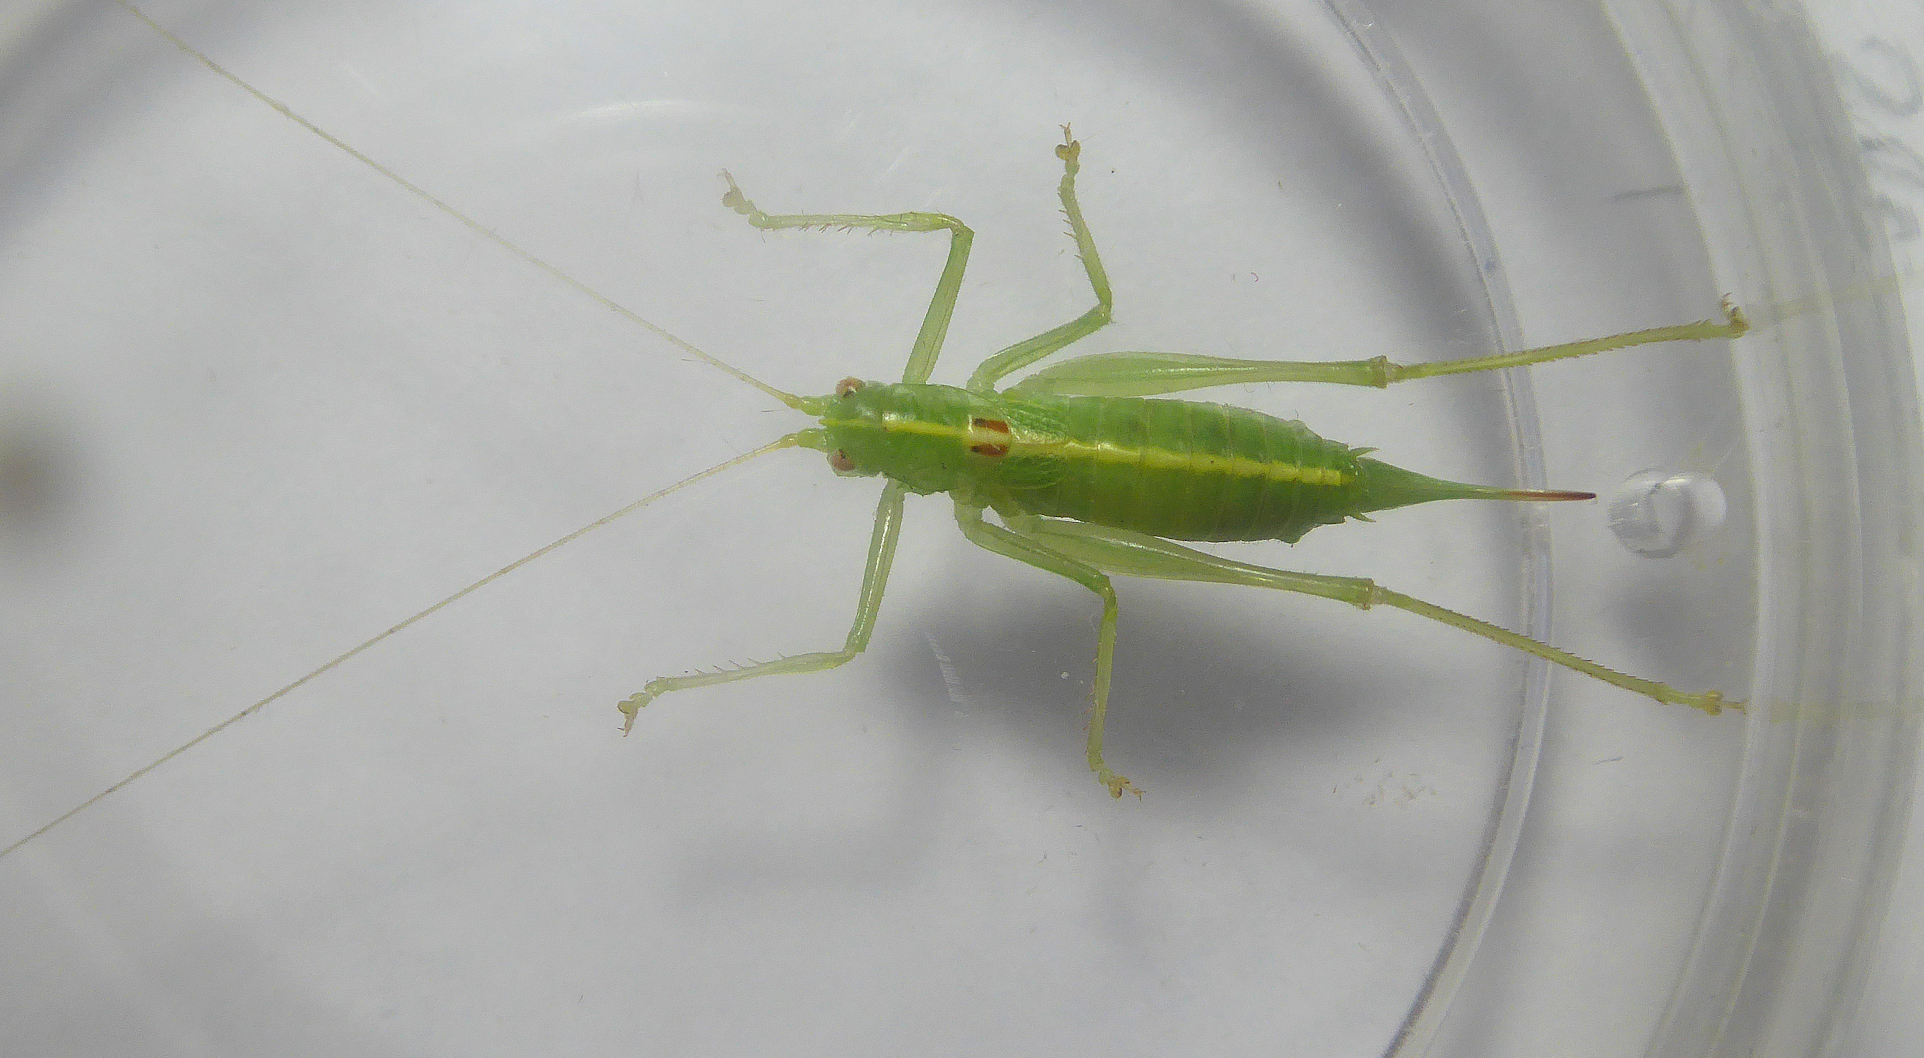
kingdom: Animalia
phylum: Arthropoda
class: Insecta
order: Orthoptera
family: Tettigoniidae
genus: Meconema
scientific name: Meconema meridionale
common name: Southern oak bush-cricket
